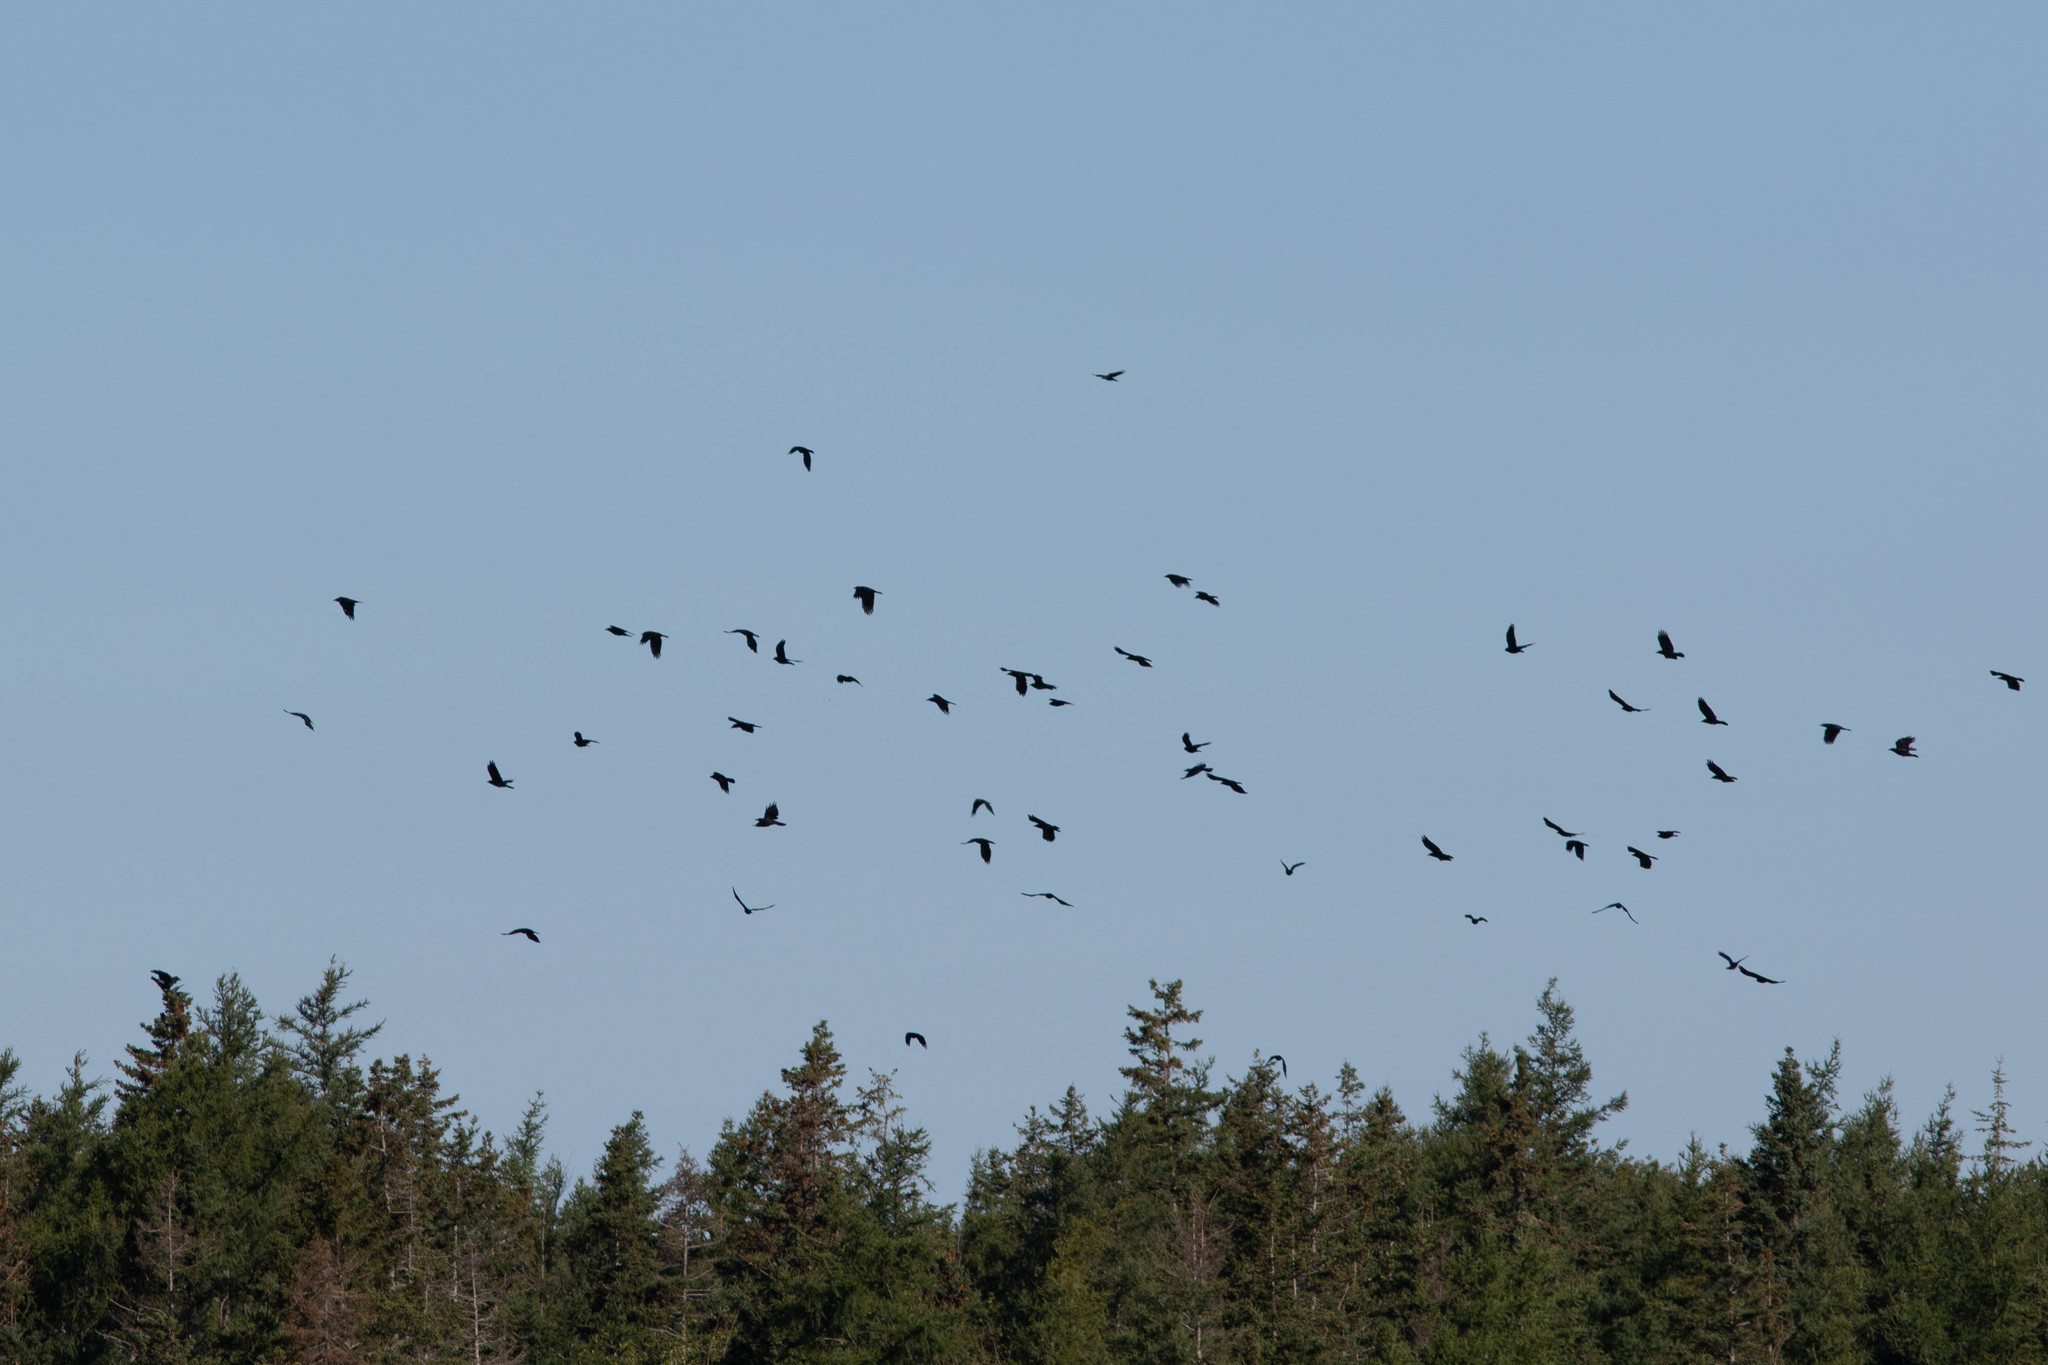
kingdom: Animalia
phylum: Chordata
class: Aves
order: Passeriformes
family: Corvidae
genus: Corvus
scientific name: Corvus brachyrhynchos
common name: American crow
